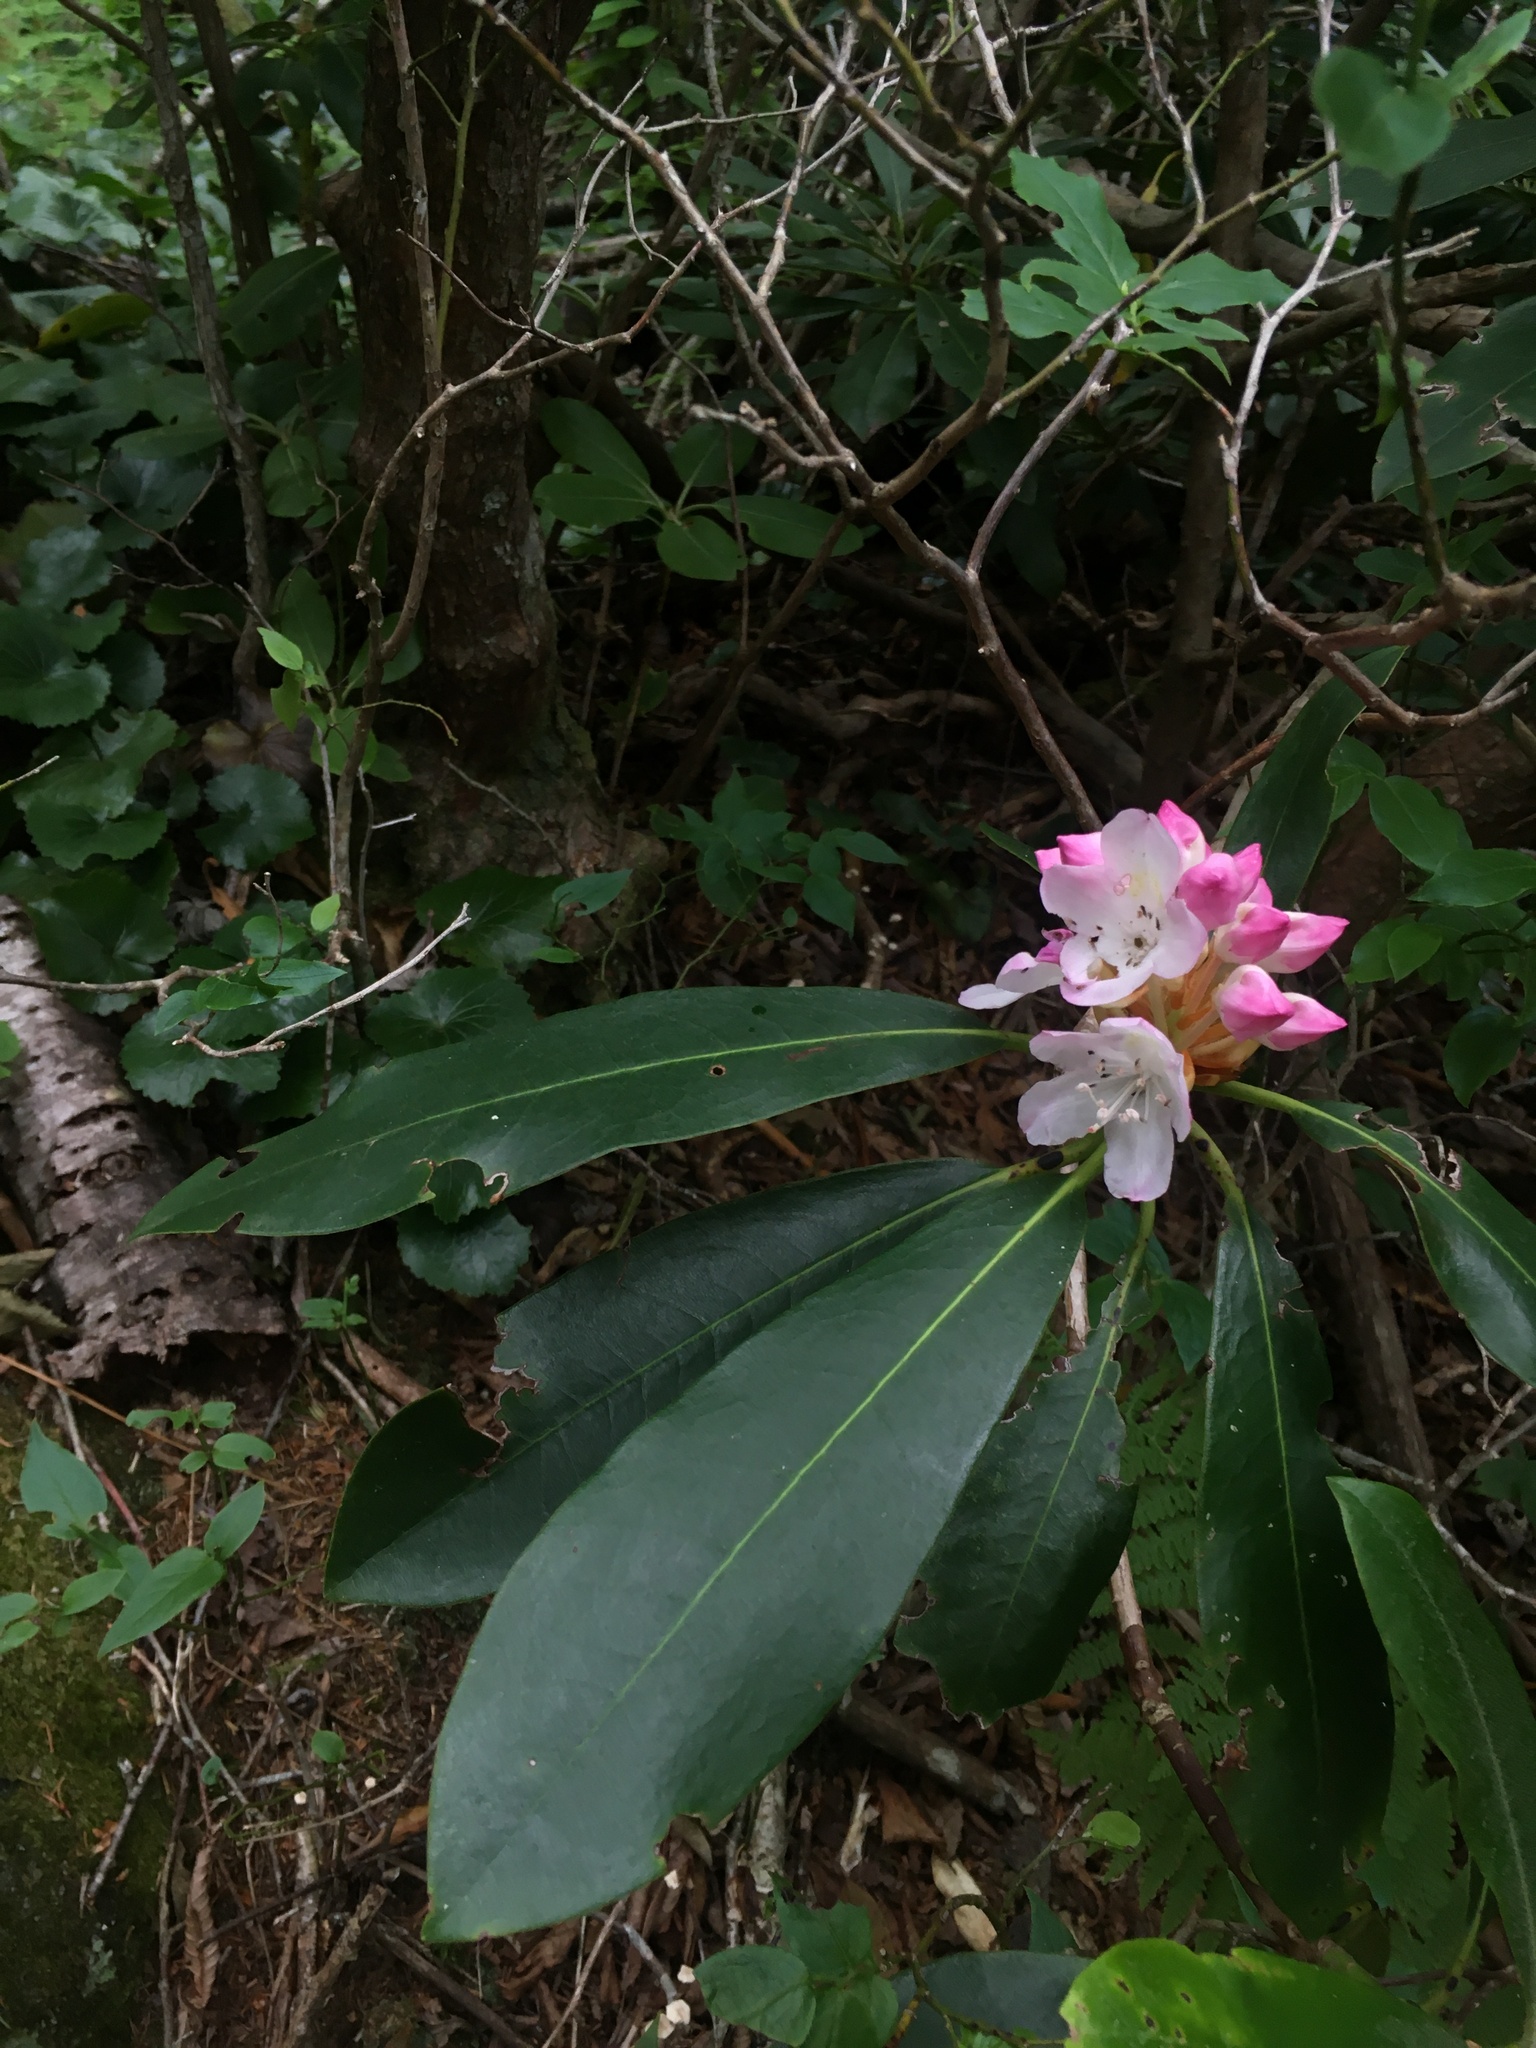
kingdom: Plantae
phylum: Tracheophyta
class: Magnoliopsida
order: Ericales
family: Ericaceae
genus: Rhododendron
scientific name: Rhododendron maximum
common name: Great rhododendron
